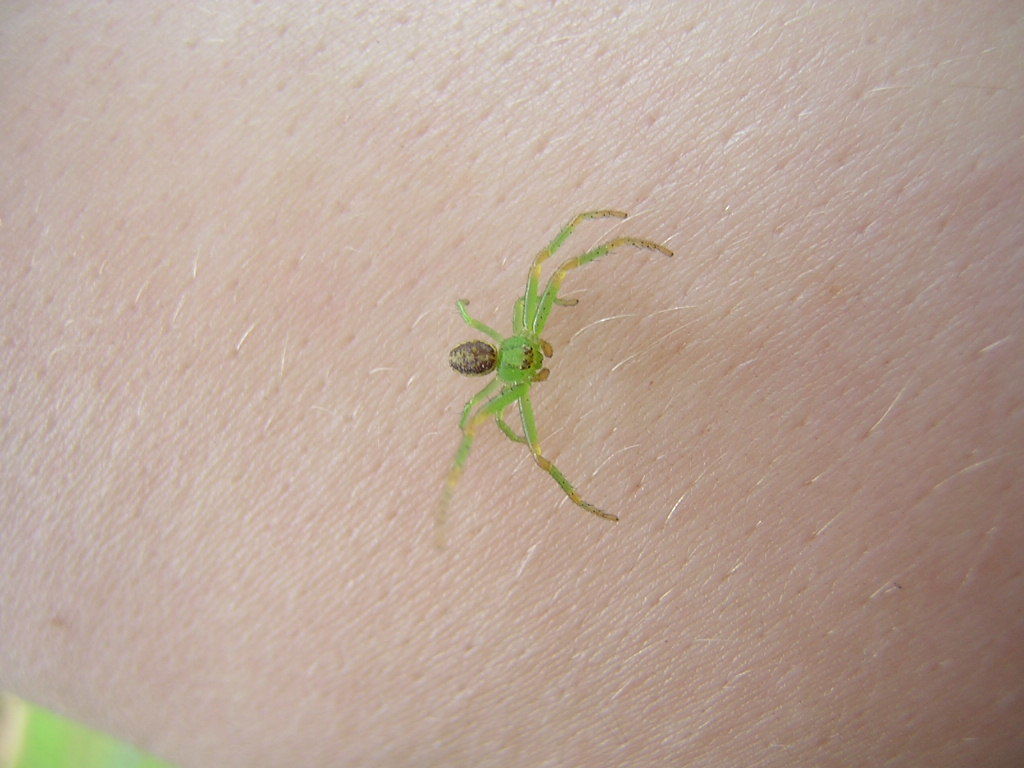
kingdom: Animalia
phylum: Arthropoda
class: Arachnida
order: Araneae
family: Thomisidae
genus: Diaea
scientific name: Diaea dorsata
